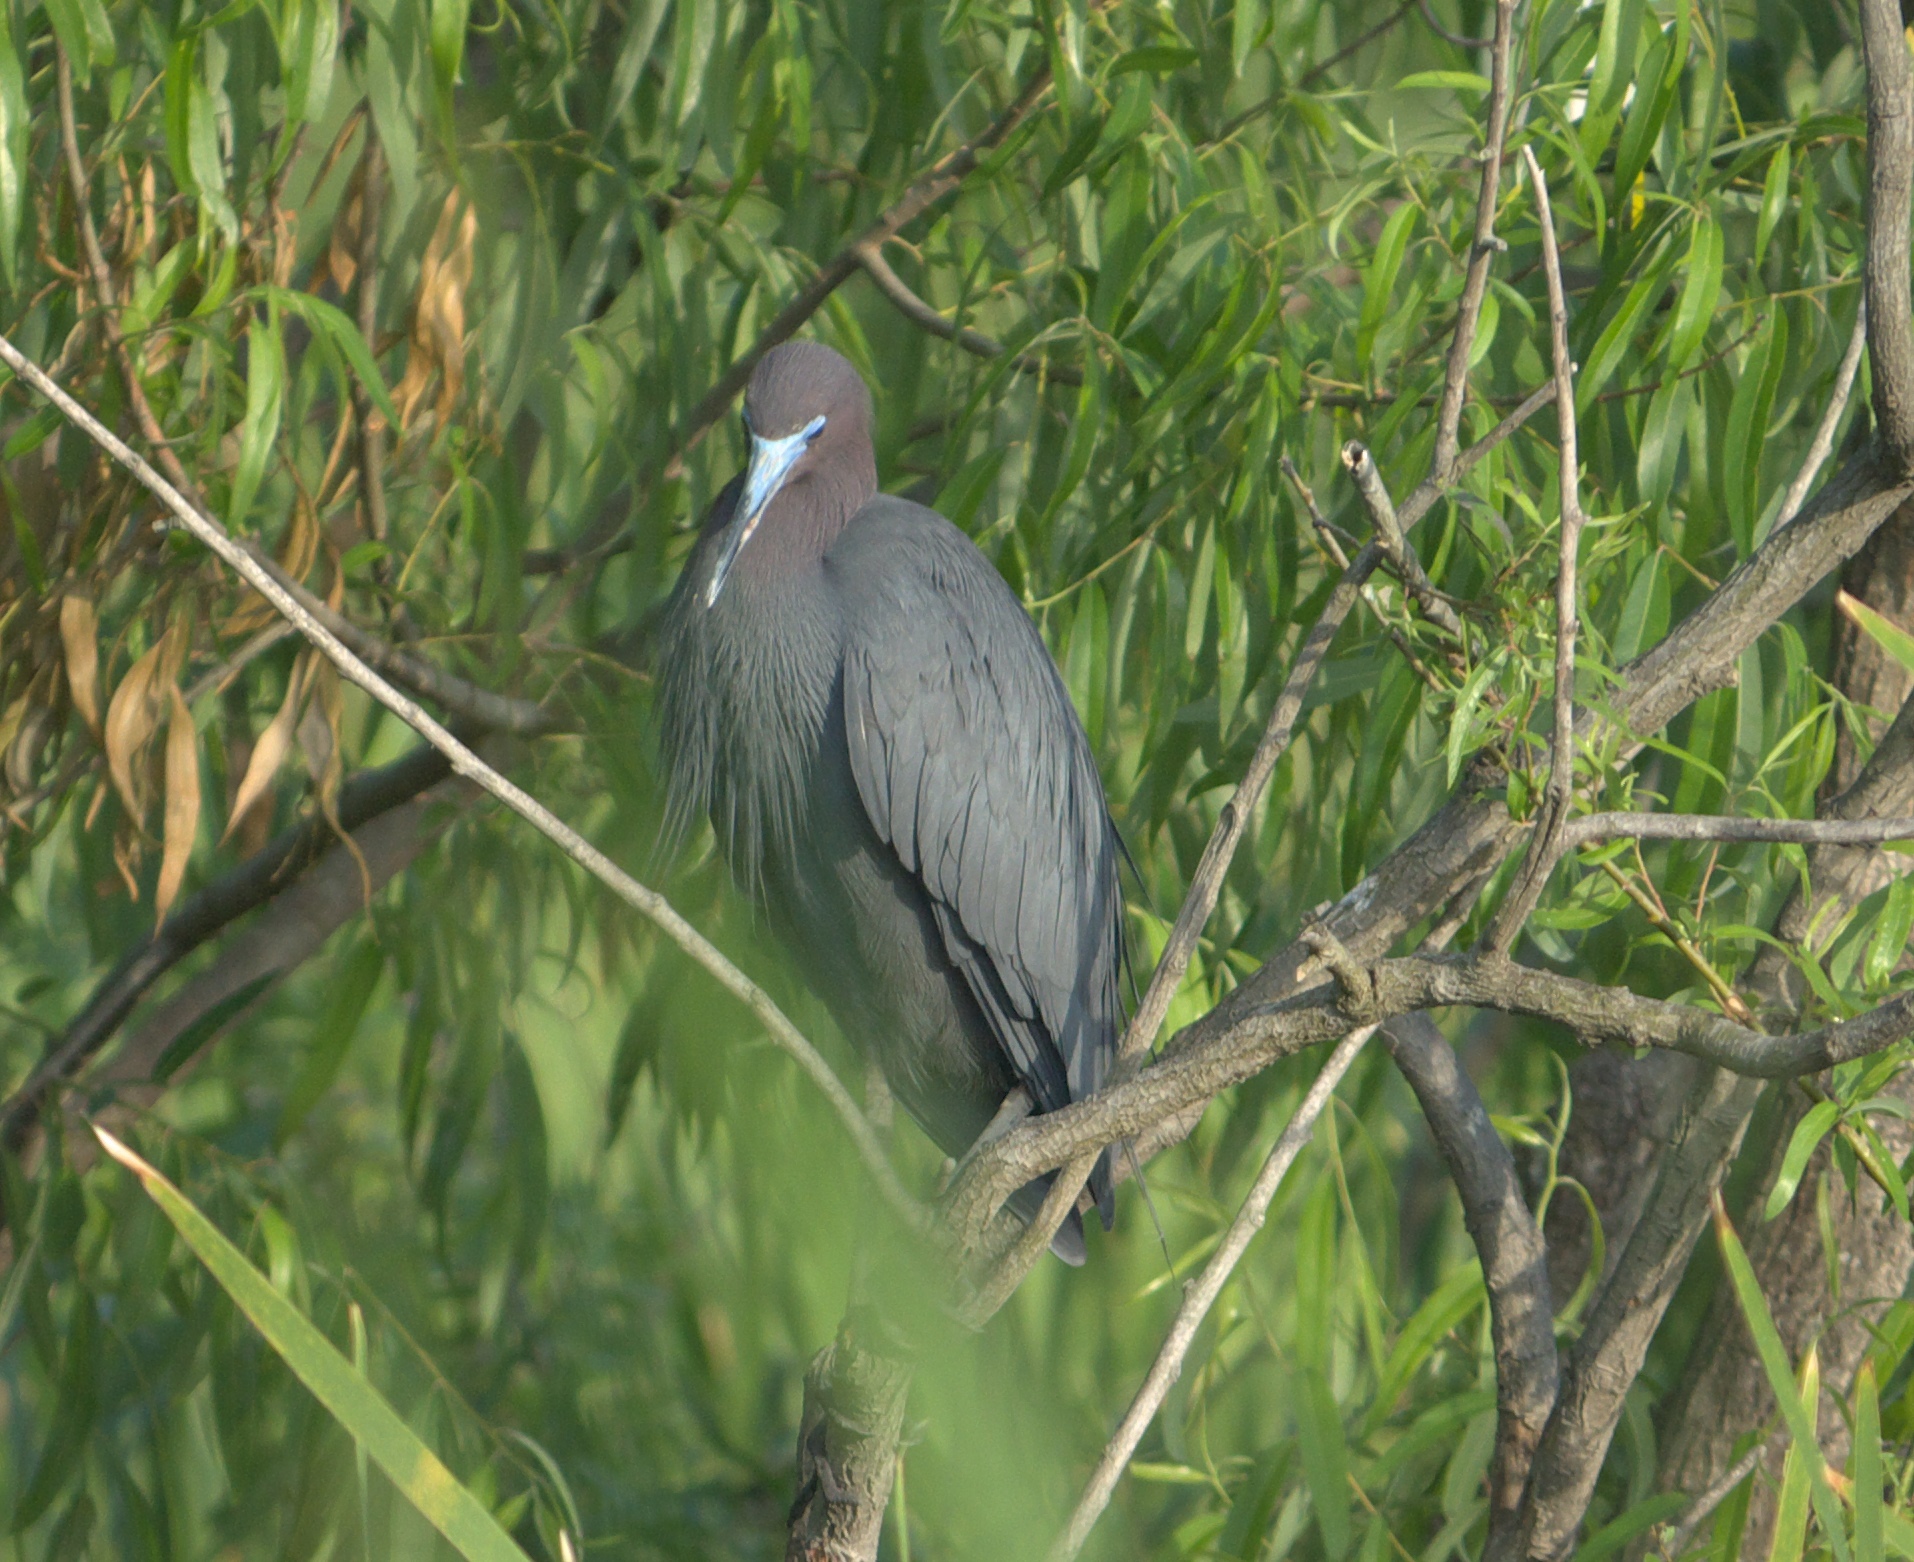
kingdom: Animalia
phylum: Chordata
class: Aves
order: Pelecaniformes
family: Ardeidae
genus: Egretta
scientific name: Egretta caerulea
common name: Little blue heron
